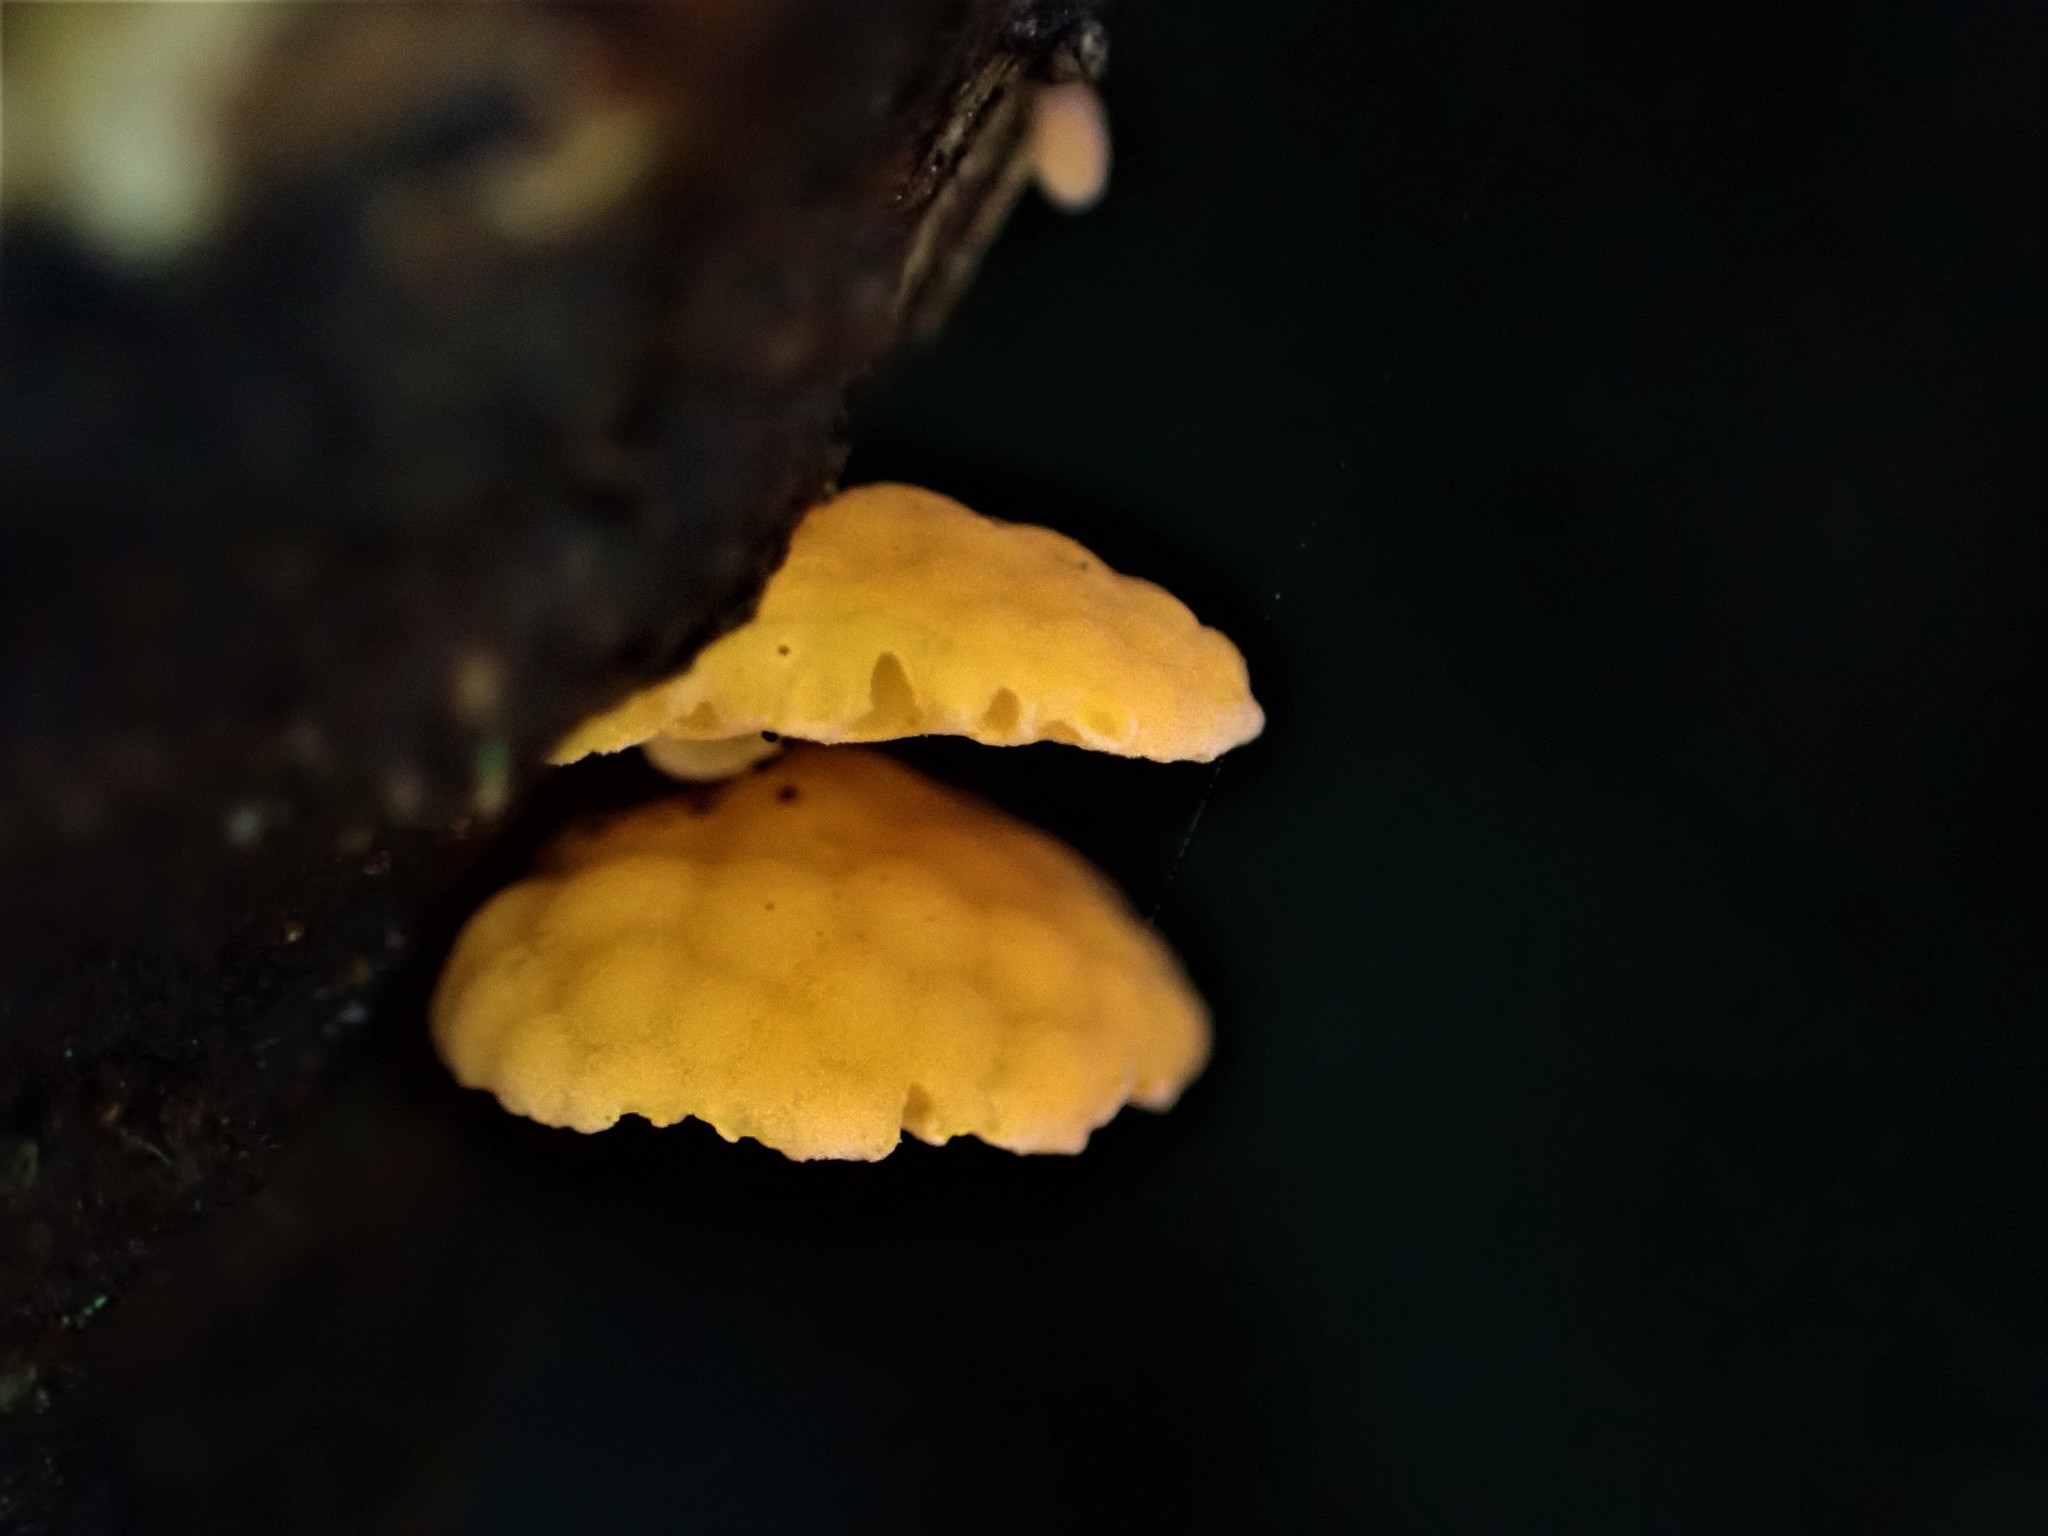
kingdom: Fungi
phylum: Basidiomycota
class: Agaricomycetes
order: Agaricales
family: Mycenaceae
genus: Favolaschia
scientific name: Favolaschia claudopus
